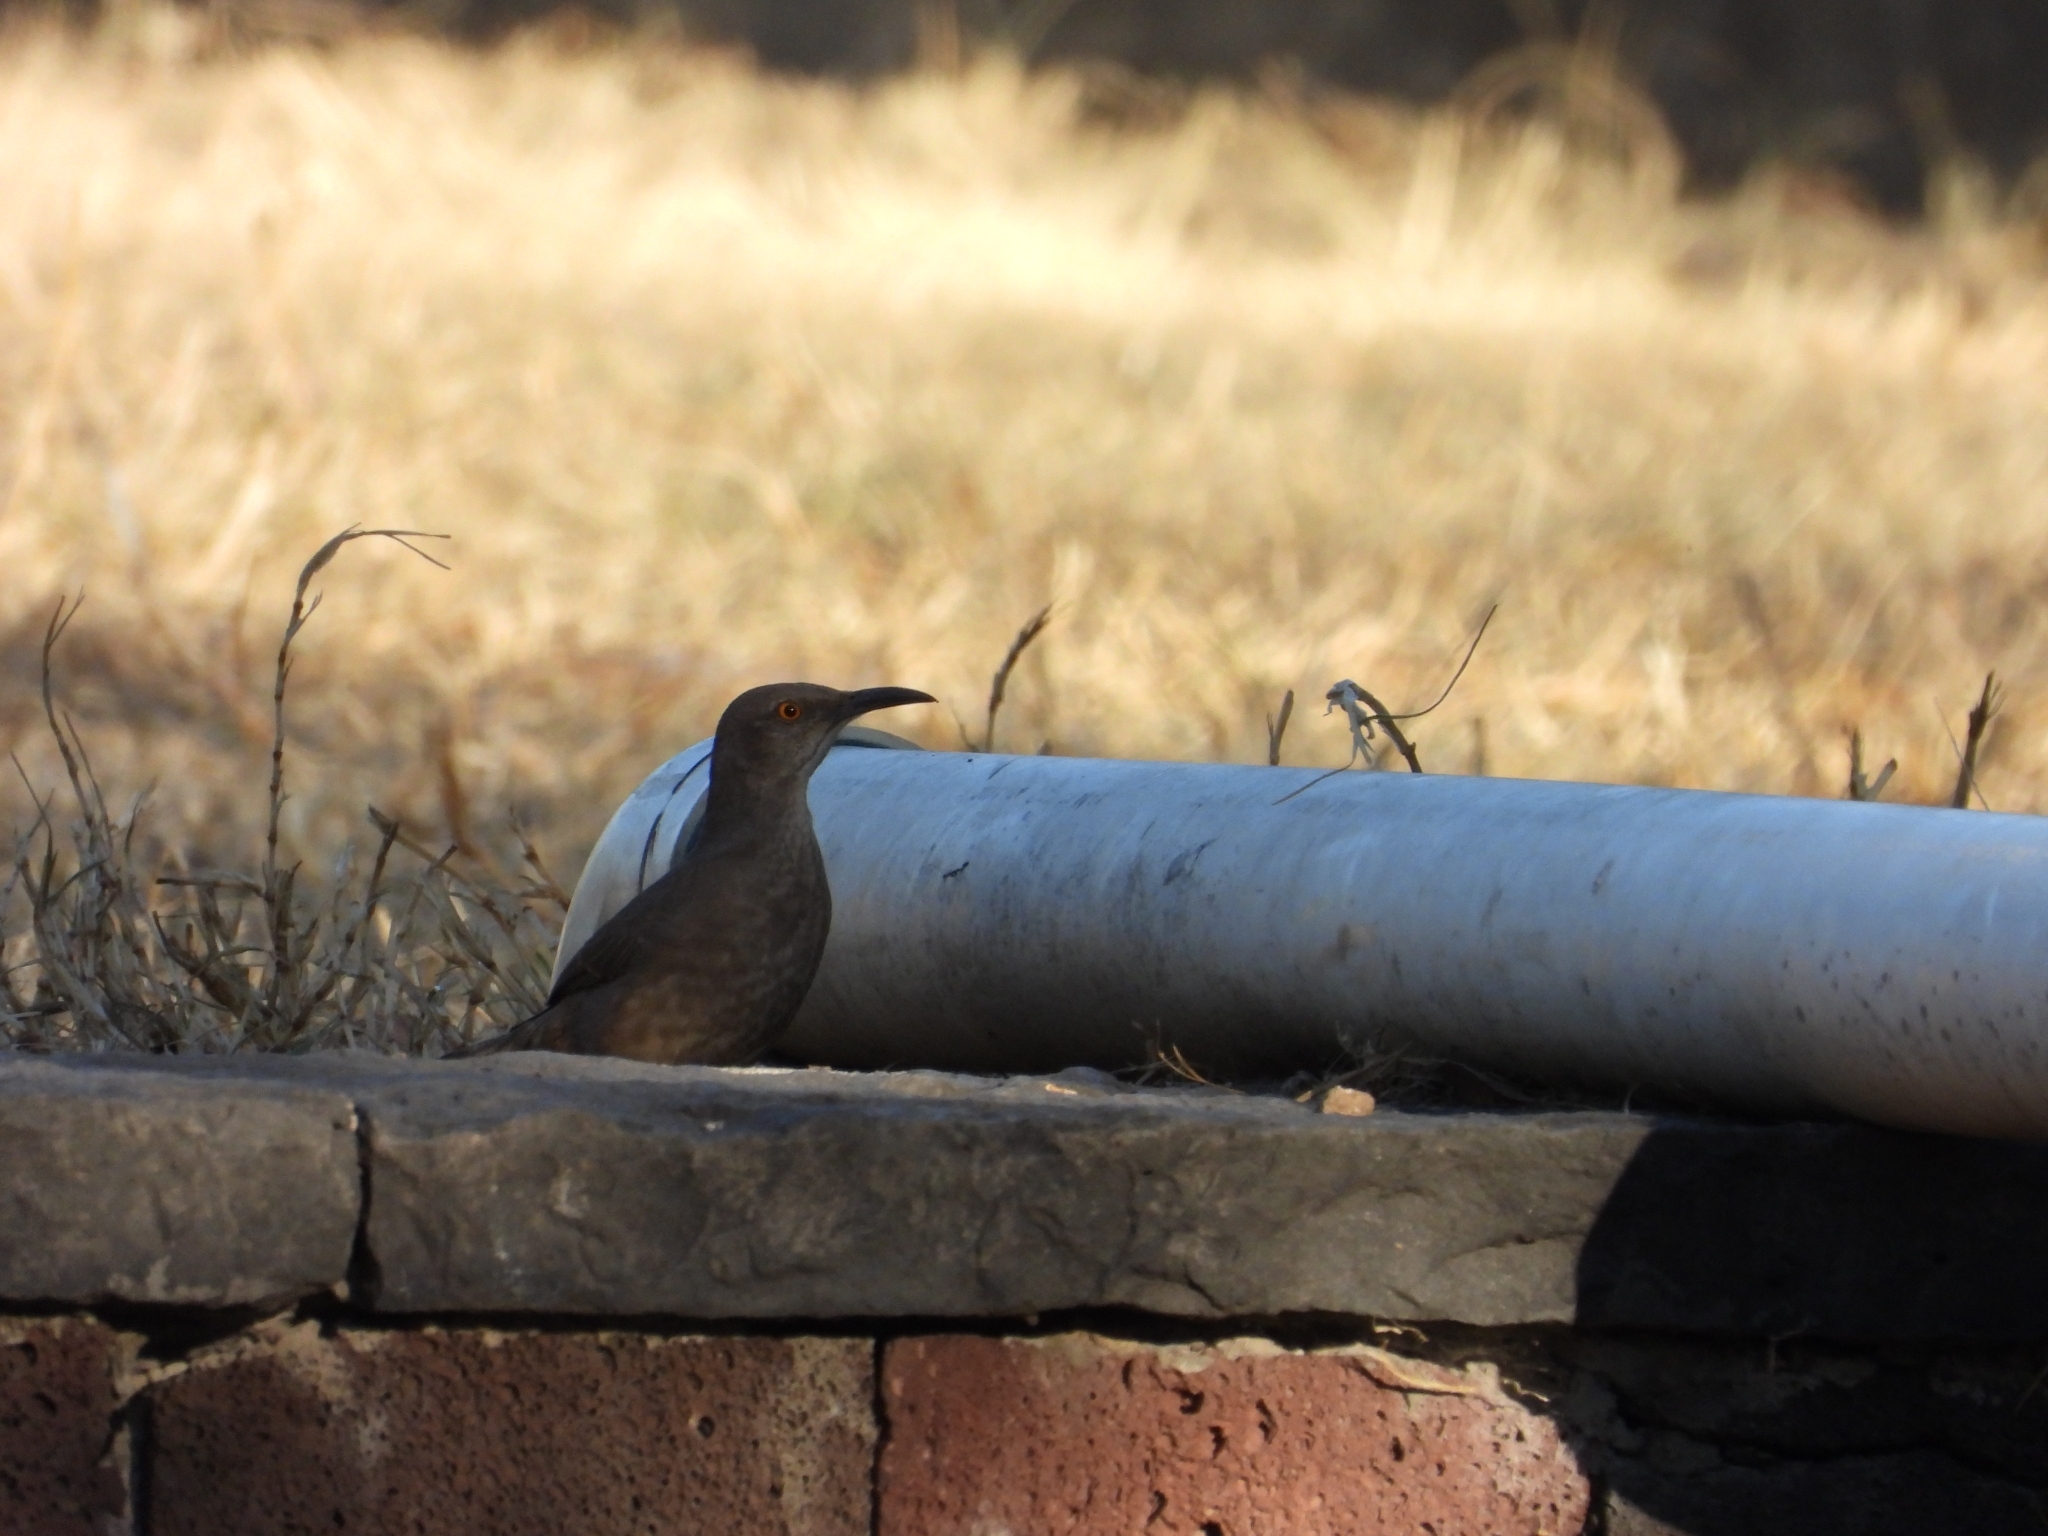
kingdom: Animalia
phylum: Chordata
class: Aves
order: Passeriformes
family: Mimidae
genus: Toxostoma
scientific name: Toxostoma curvirostre
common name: Curve-billed thrasher
